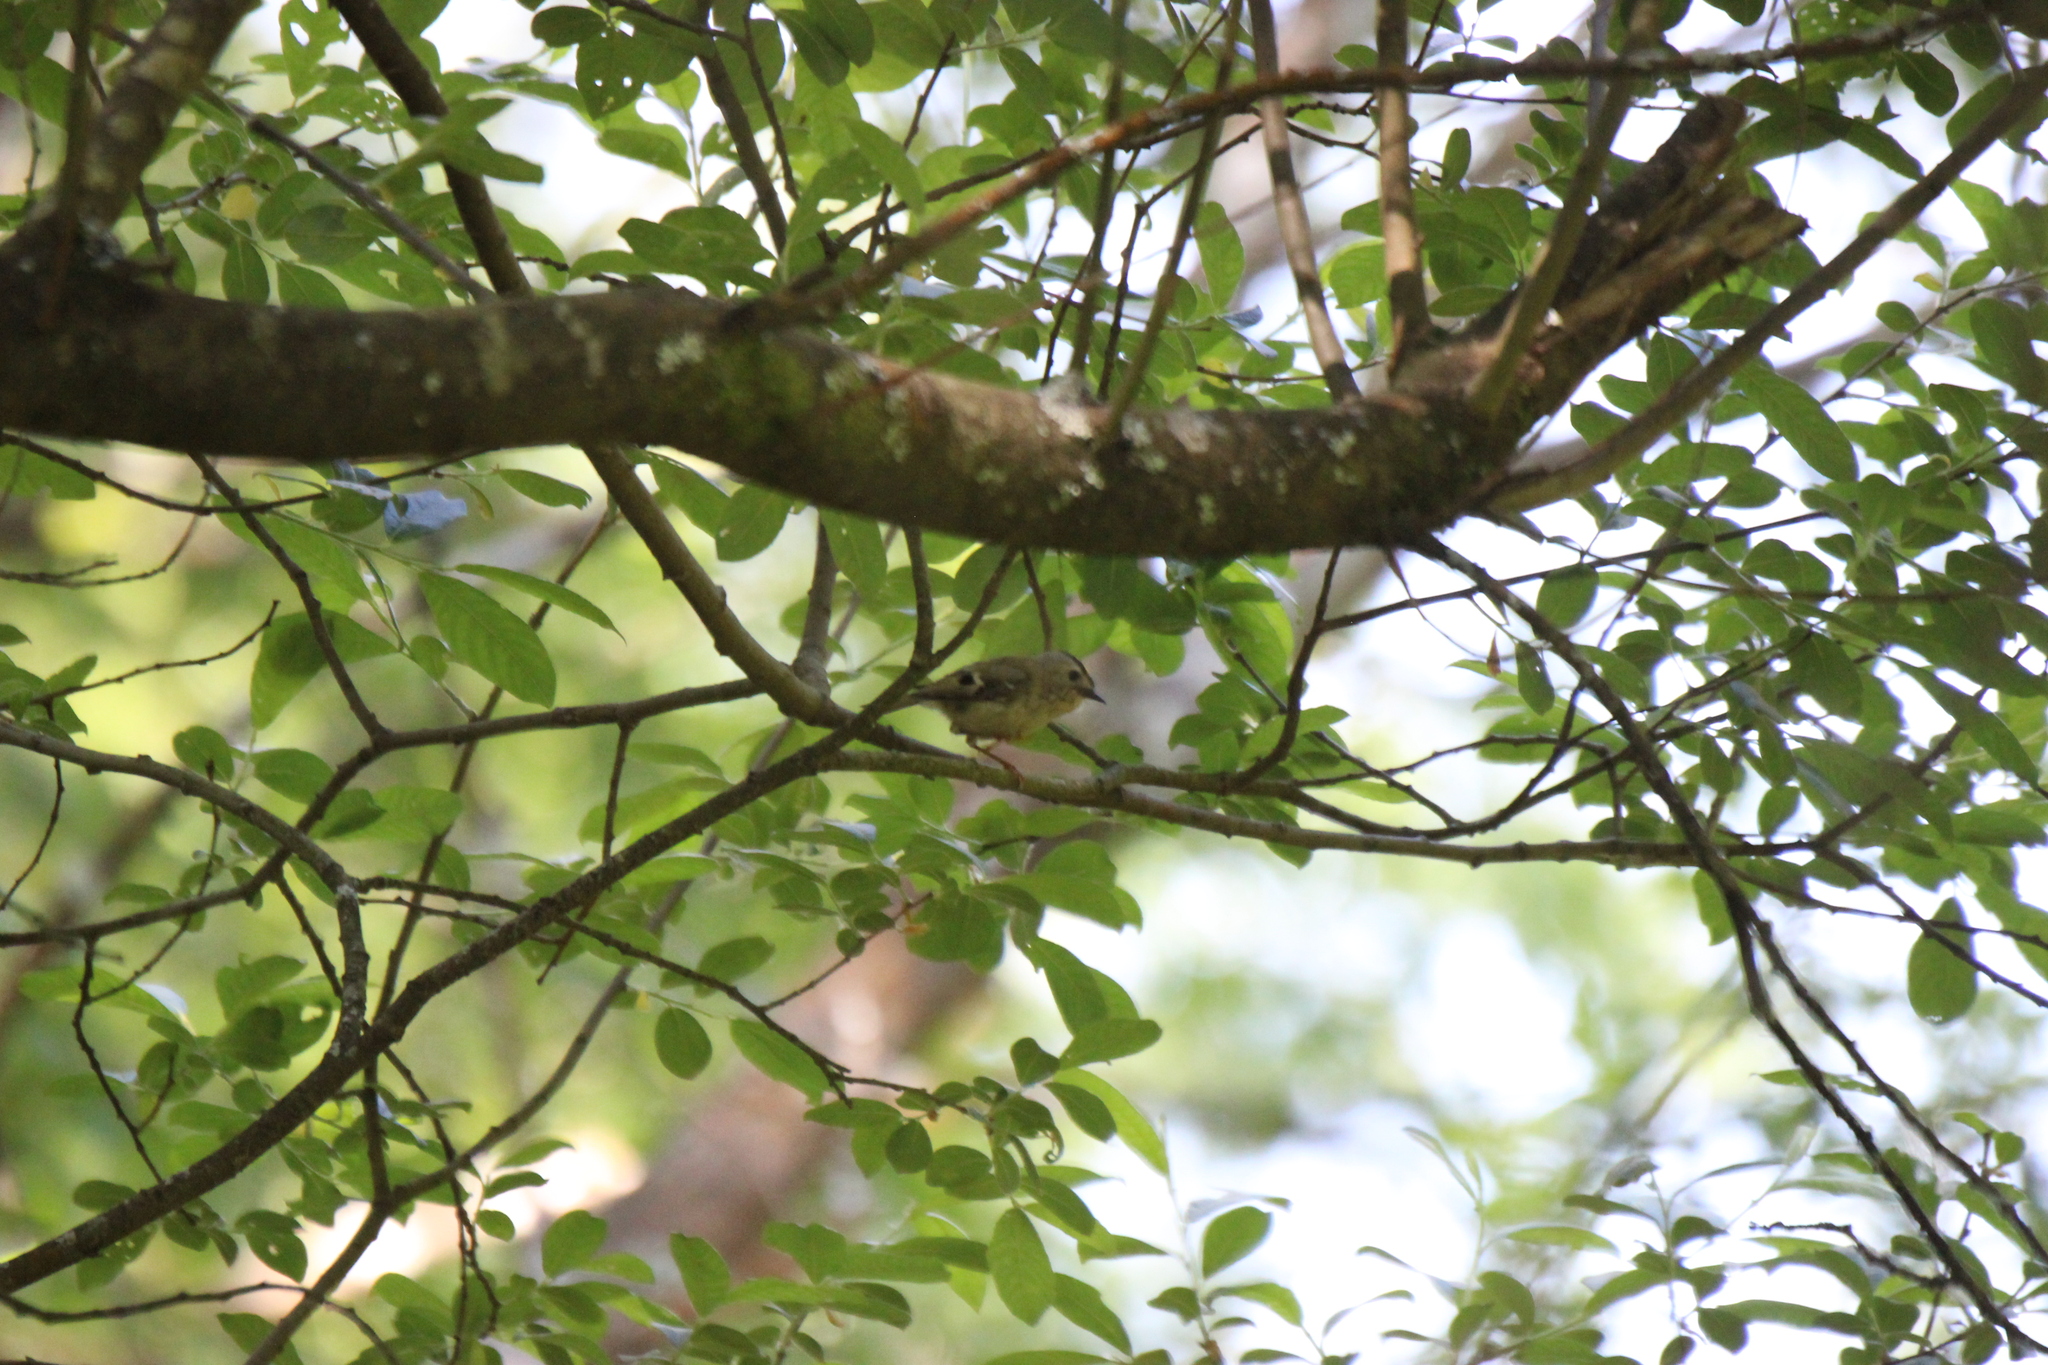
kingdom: Animalia
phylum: Chordata
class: Aves
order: Passeriformes
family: Regulidae
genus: Regulus
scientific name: Regulus regulus
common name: Goldcrest
